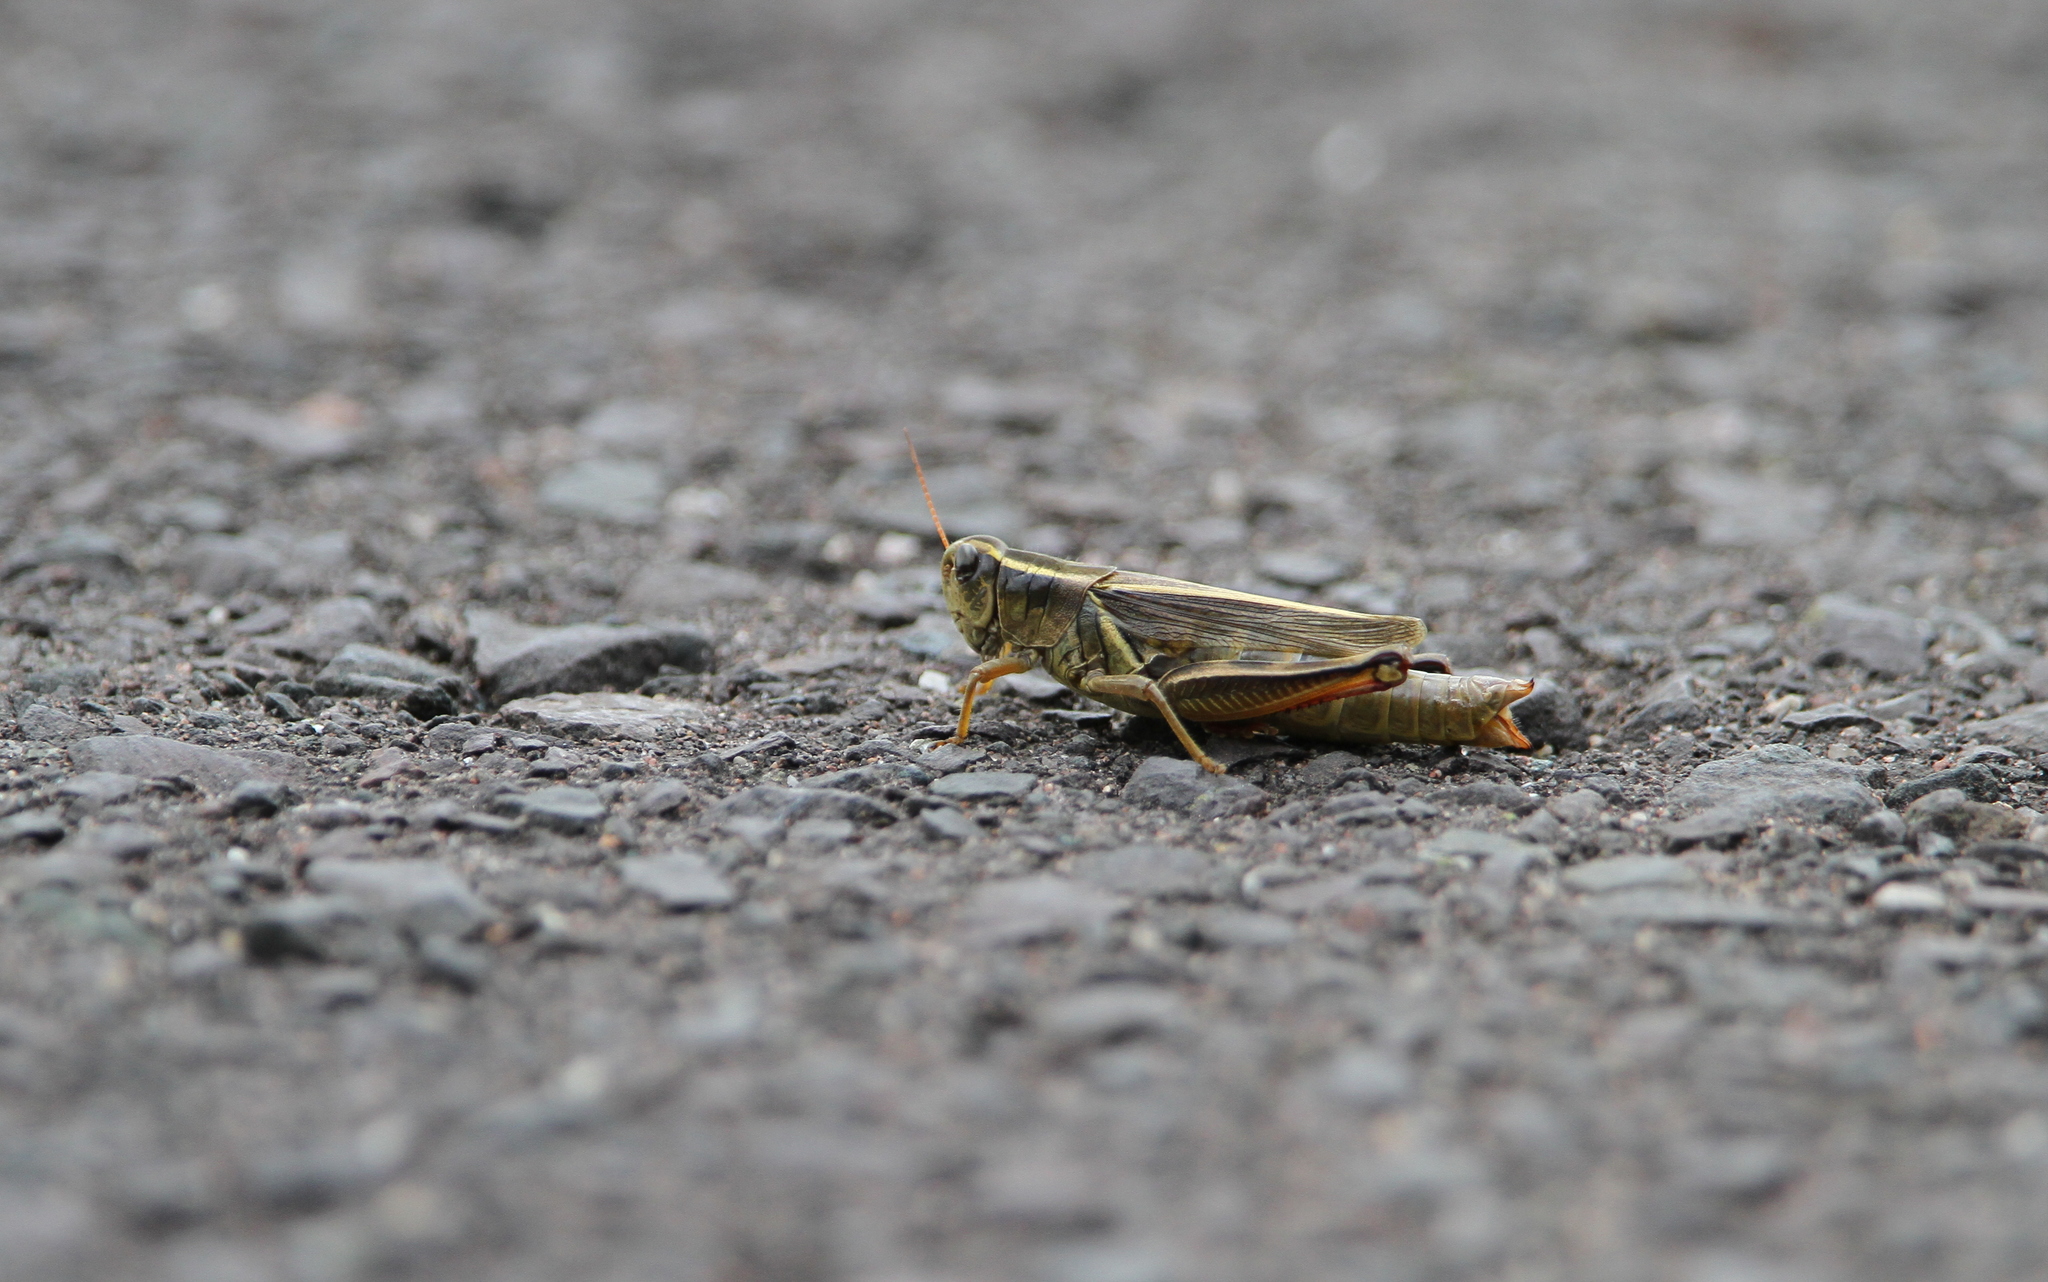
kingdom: Animalia
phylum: Arthropoda
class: Insecta
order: Orthoptera
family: Acrididae
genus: Melanoplus
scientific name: Melanoplus bivittatus
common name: Two-striped grasshopper
